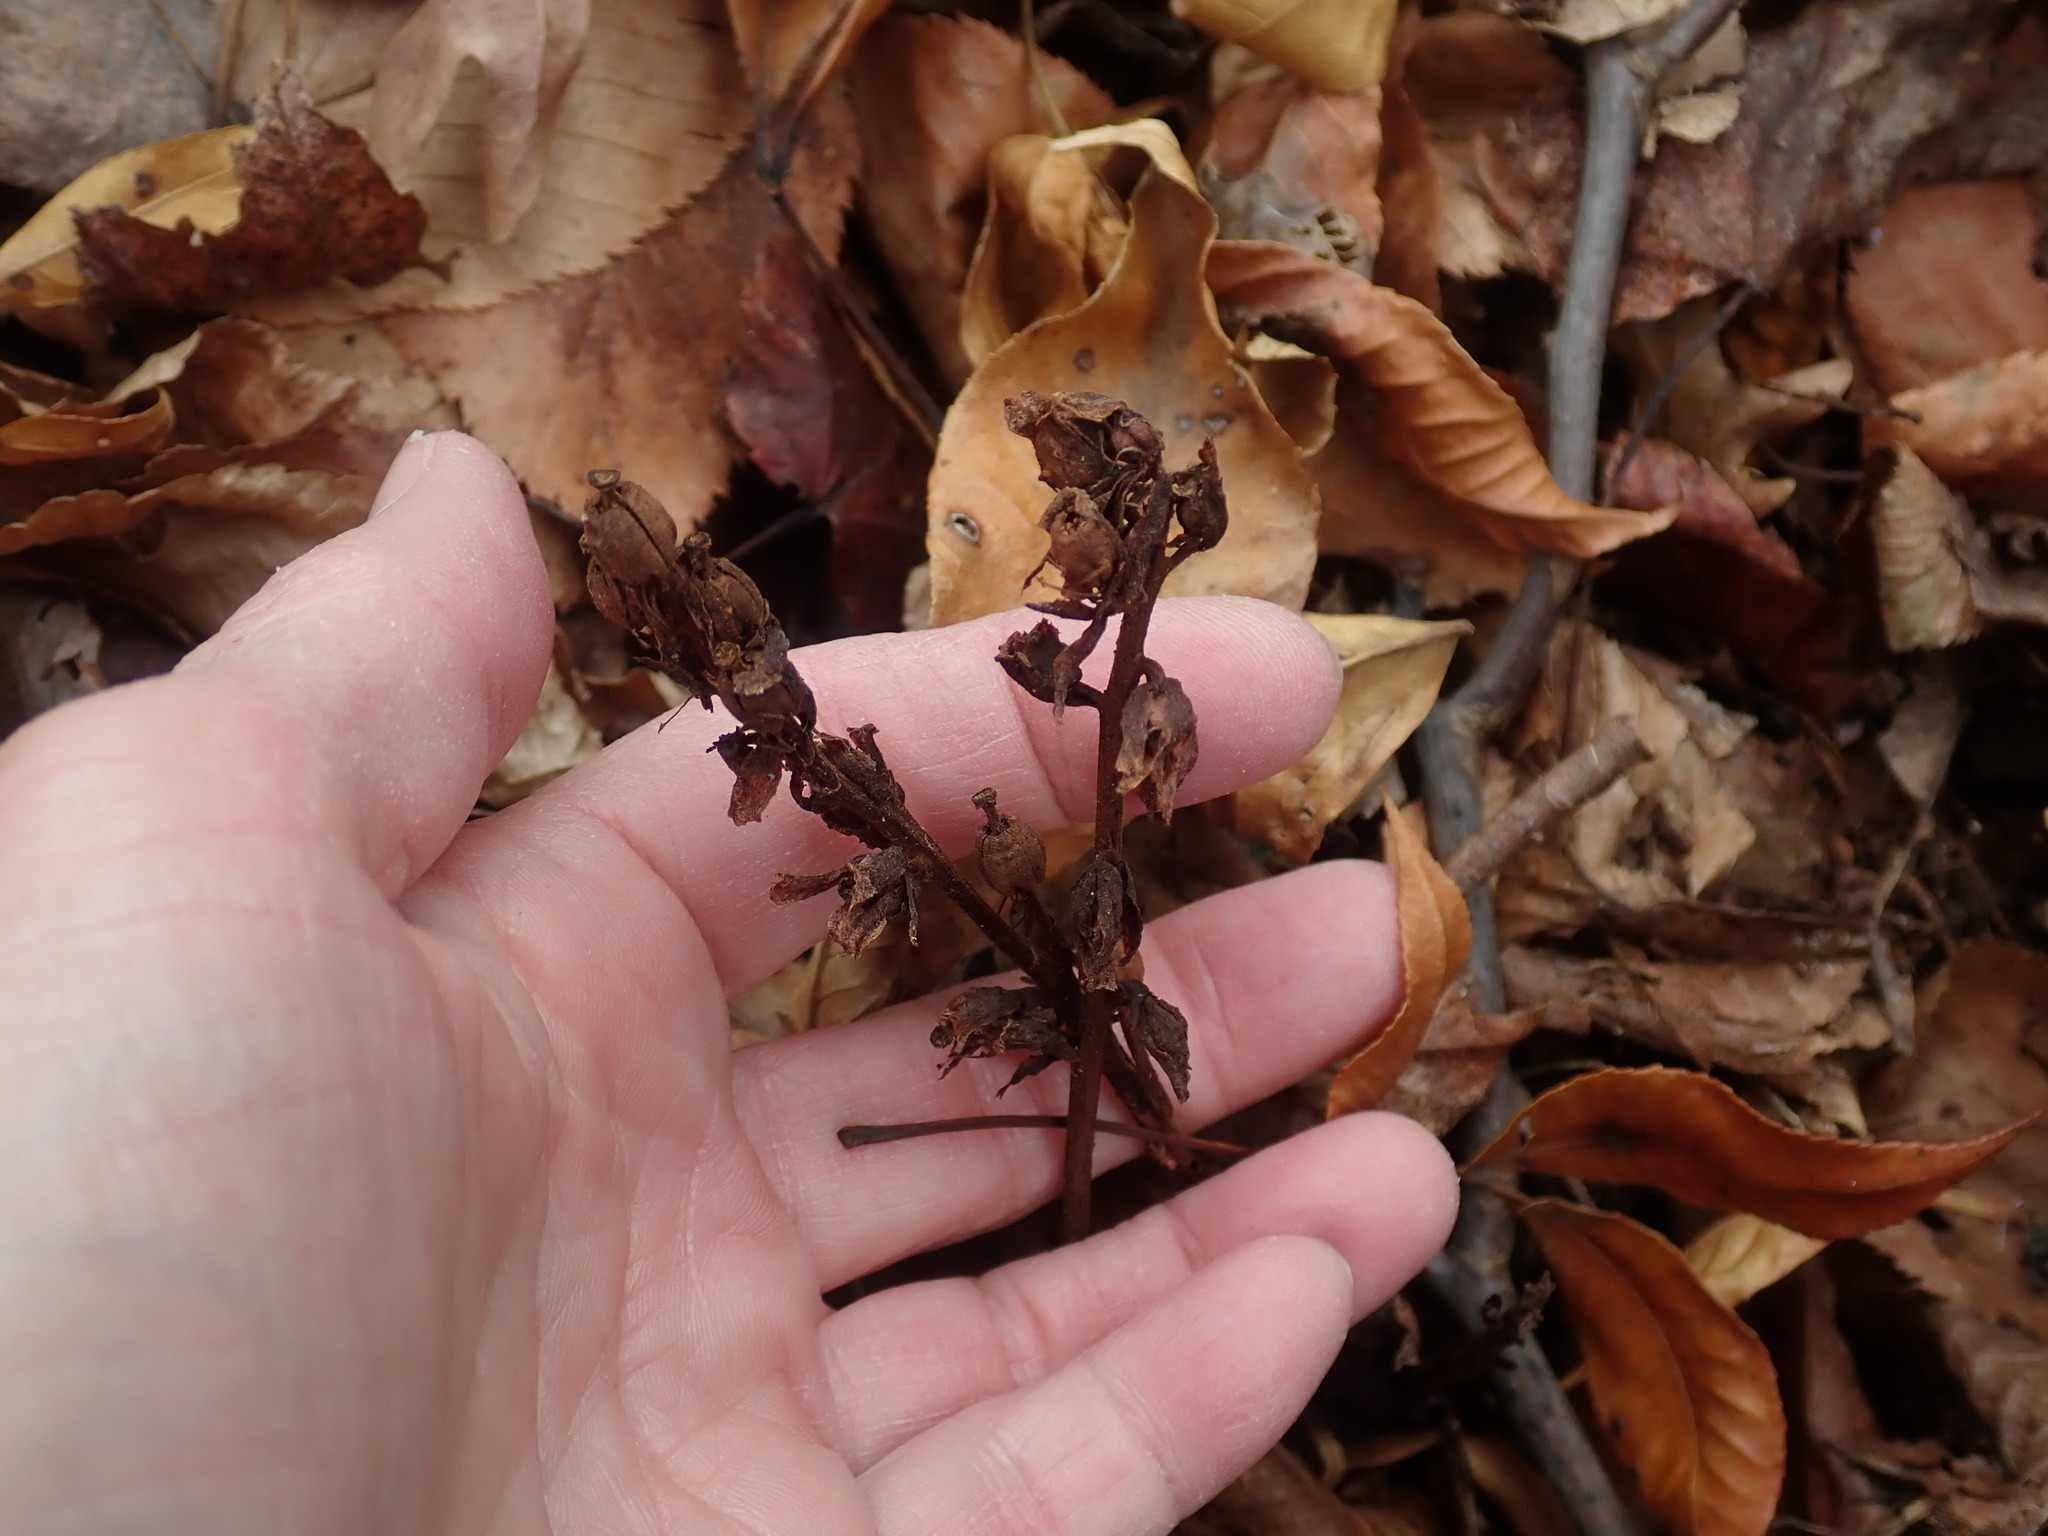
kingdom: Plantae
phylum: Tracheophyta
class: Magnoliopsida
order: Ericales
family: Ericaceae
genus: Hypopitys
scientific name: Hypopitys monotropa
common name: Yellow bird's-nest
